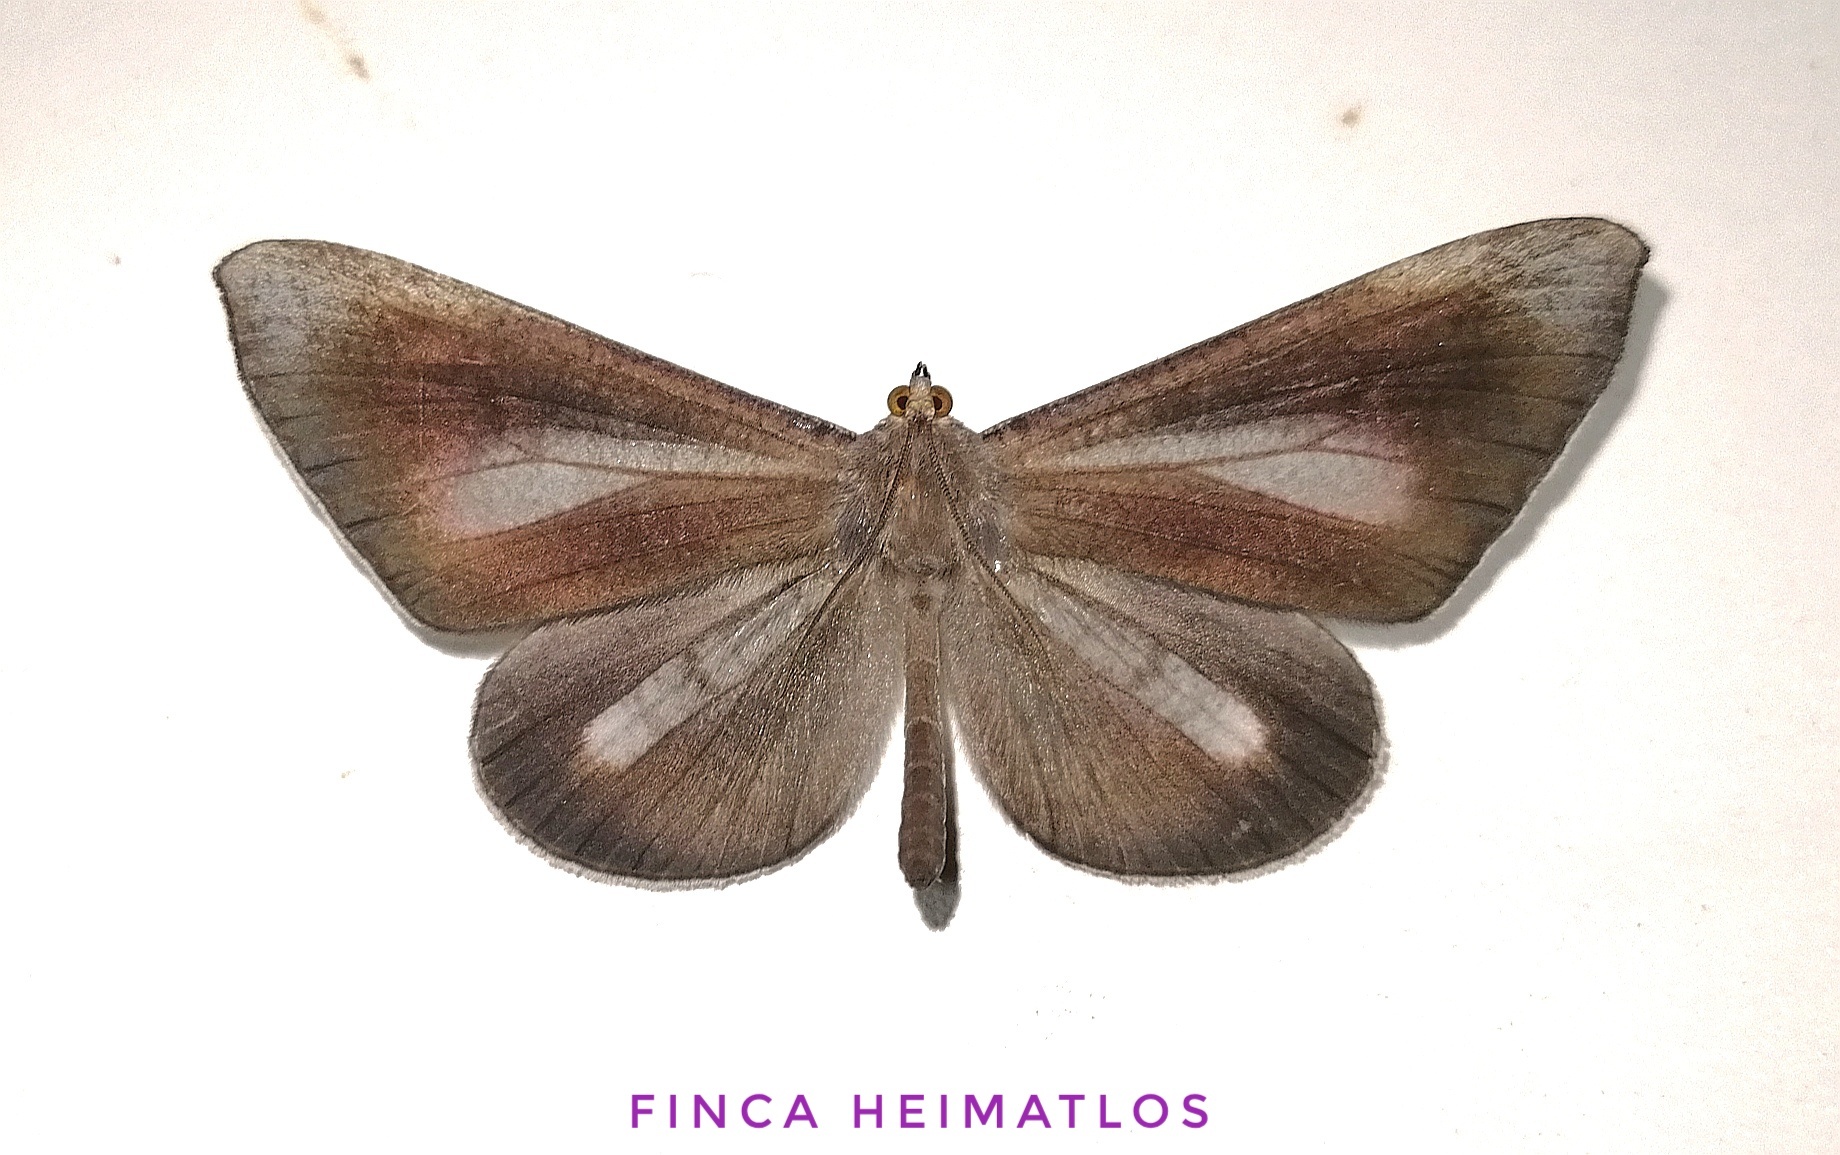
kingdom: Animalia
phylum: Arthropoda
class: Insecta
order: Lepidoptera
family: Hedylidae
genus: Macrosoma
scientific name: Macrosoma lucivittata
